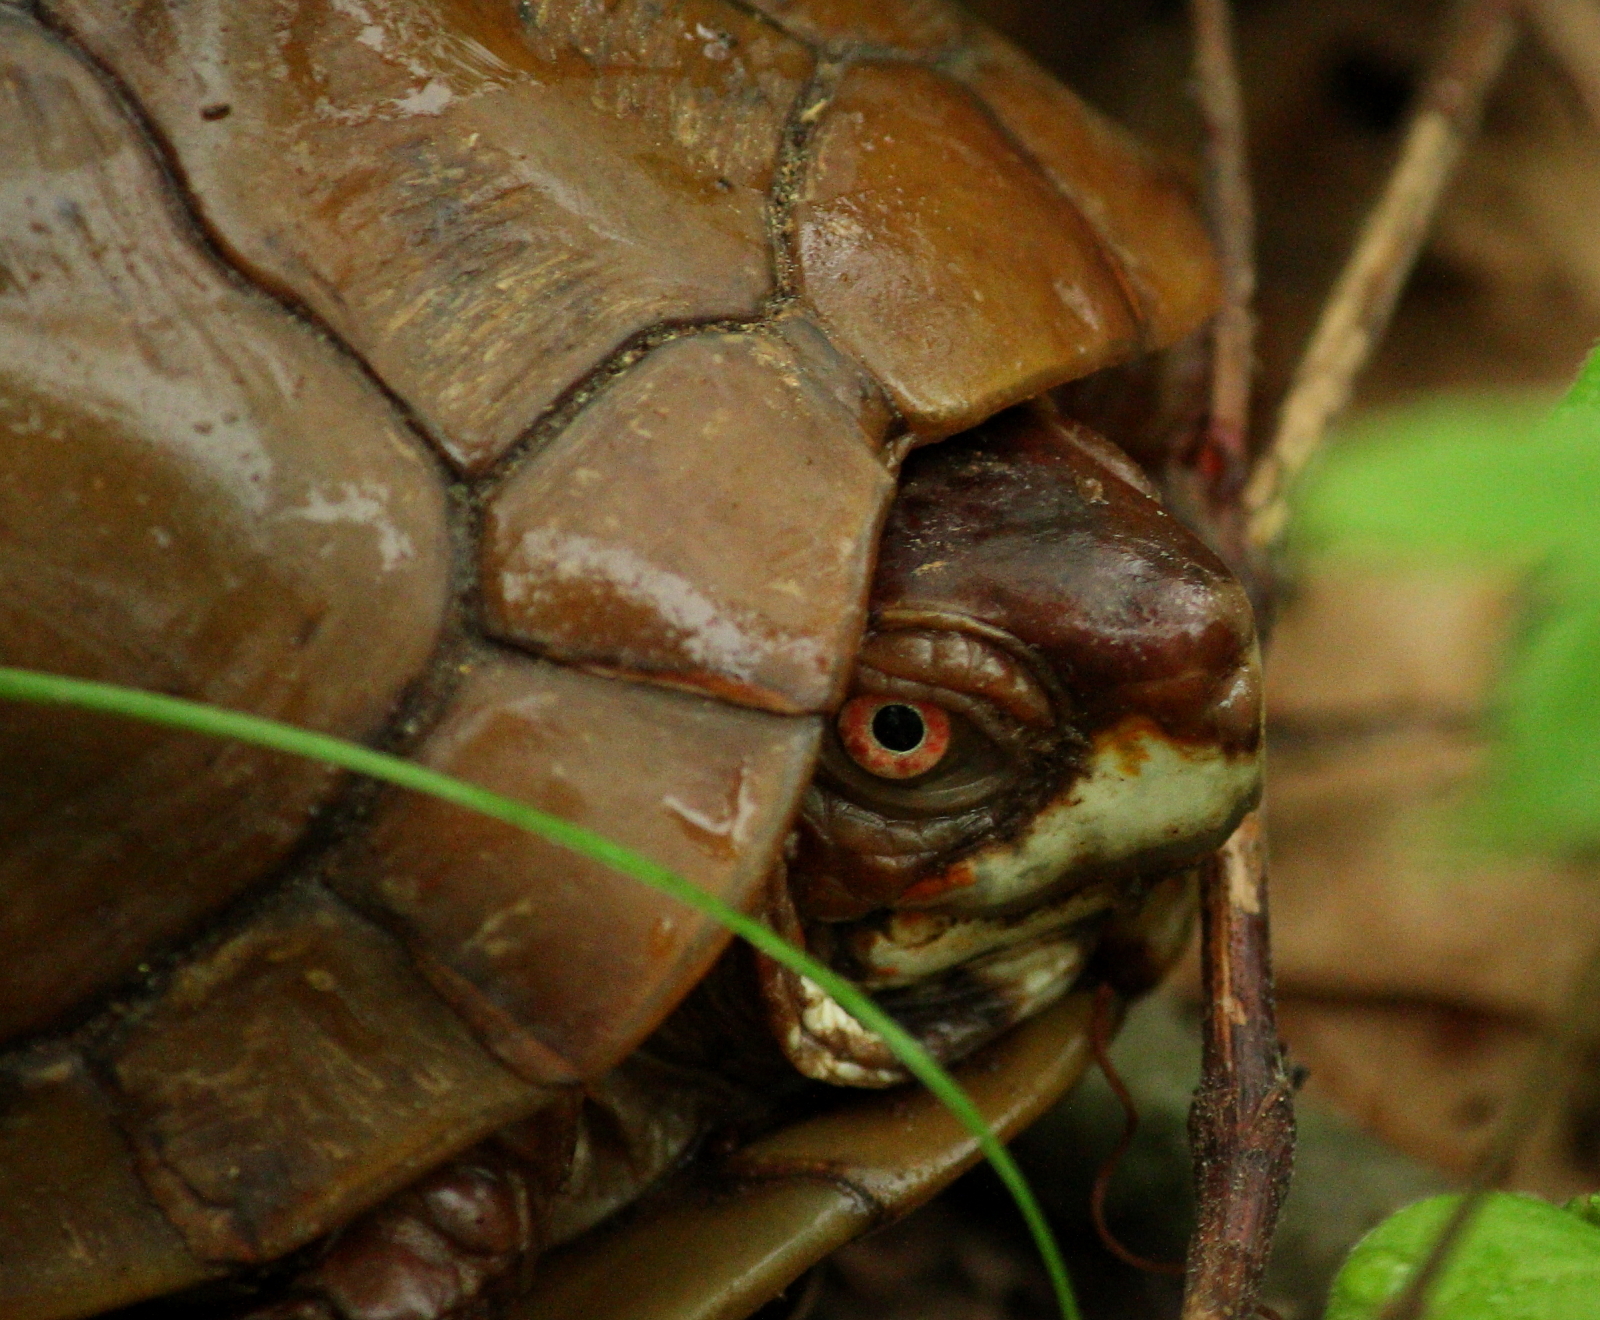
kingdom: Animalia
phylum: Chordata
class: Testudines
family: Emydidae
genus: Terrapene
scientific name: Terrapene carolina
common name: Common box turtle
